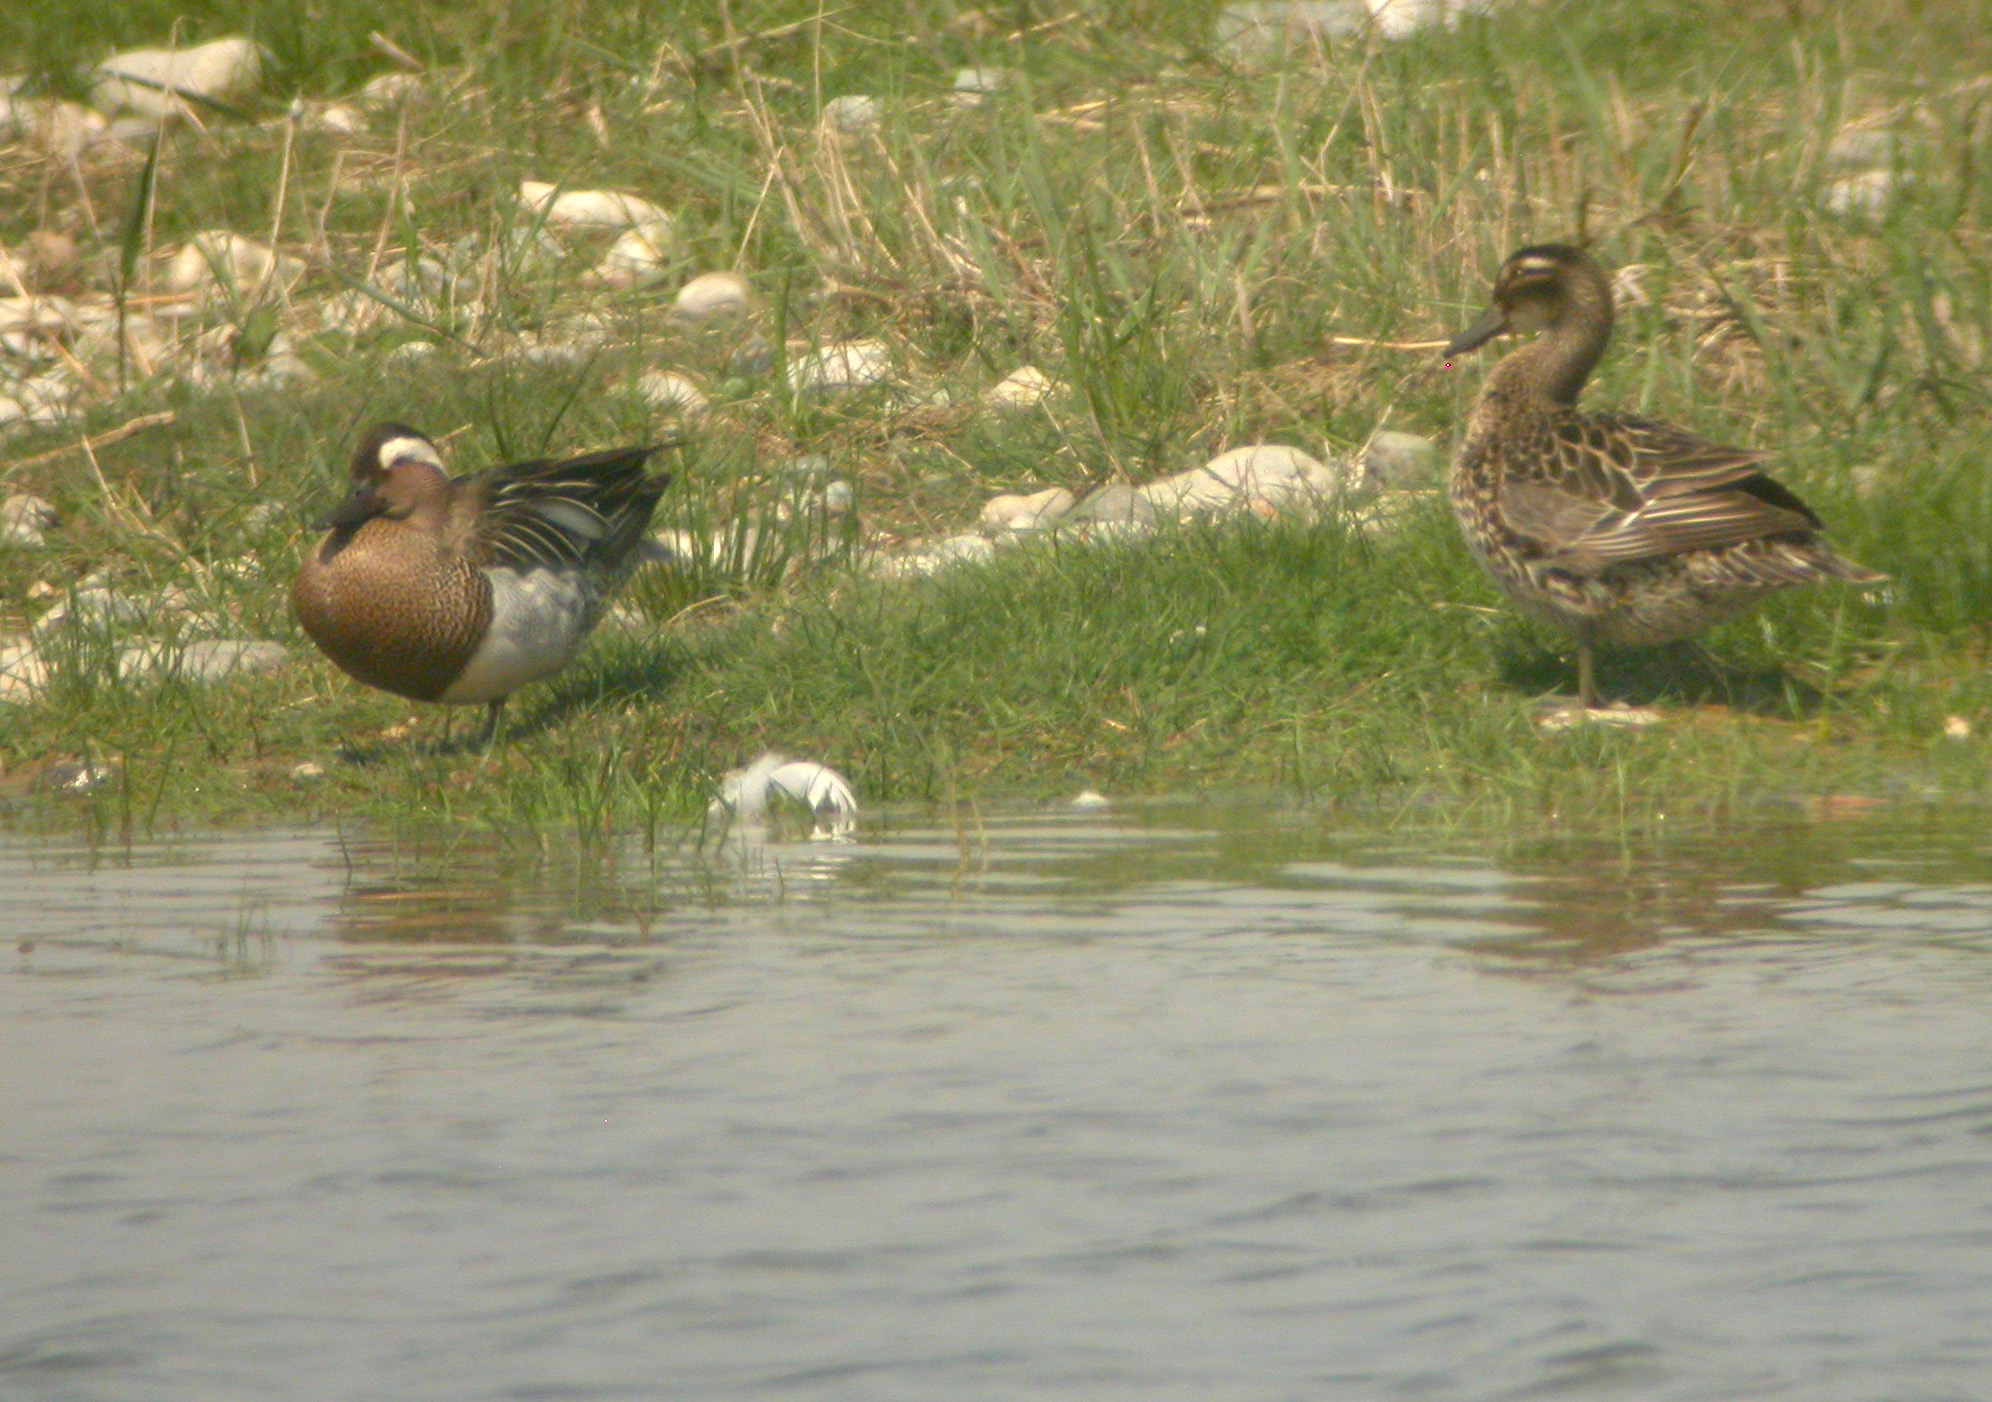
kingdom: Animalia
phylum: Chordata
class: Aves
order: Anseriformes
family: Anatidae
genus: Spatula
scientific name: Spatula querquedula
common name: Garganey
